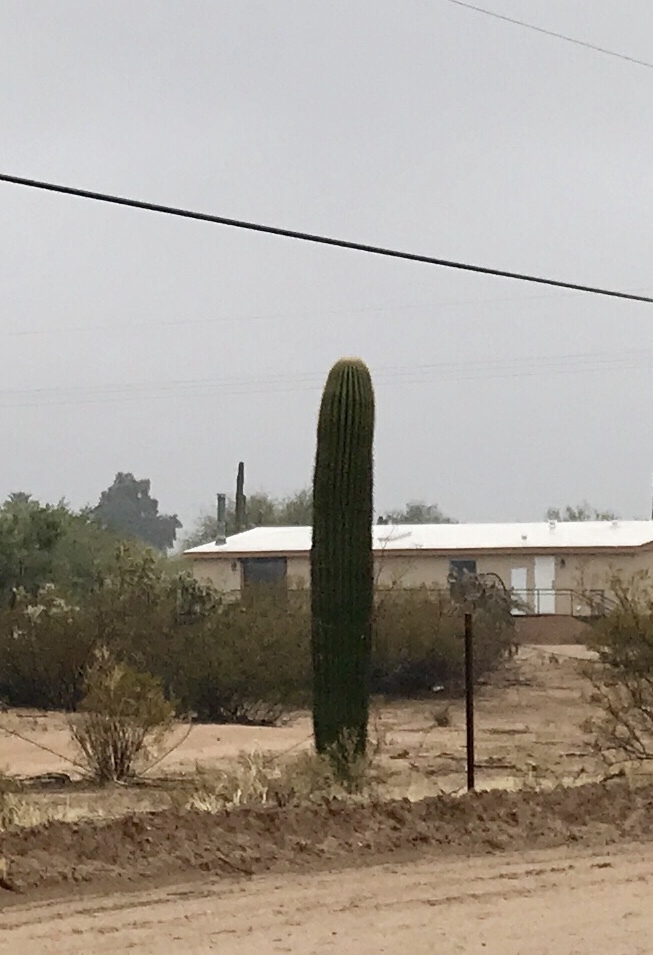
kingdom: Plantae
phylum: Tracheophyta
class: Magnoliopsida
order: Caryophyllales
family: Cactaceae
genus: Carnegiea
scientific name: Carnegiea gigantea
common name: Saguaro
